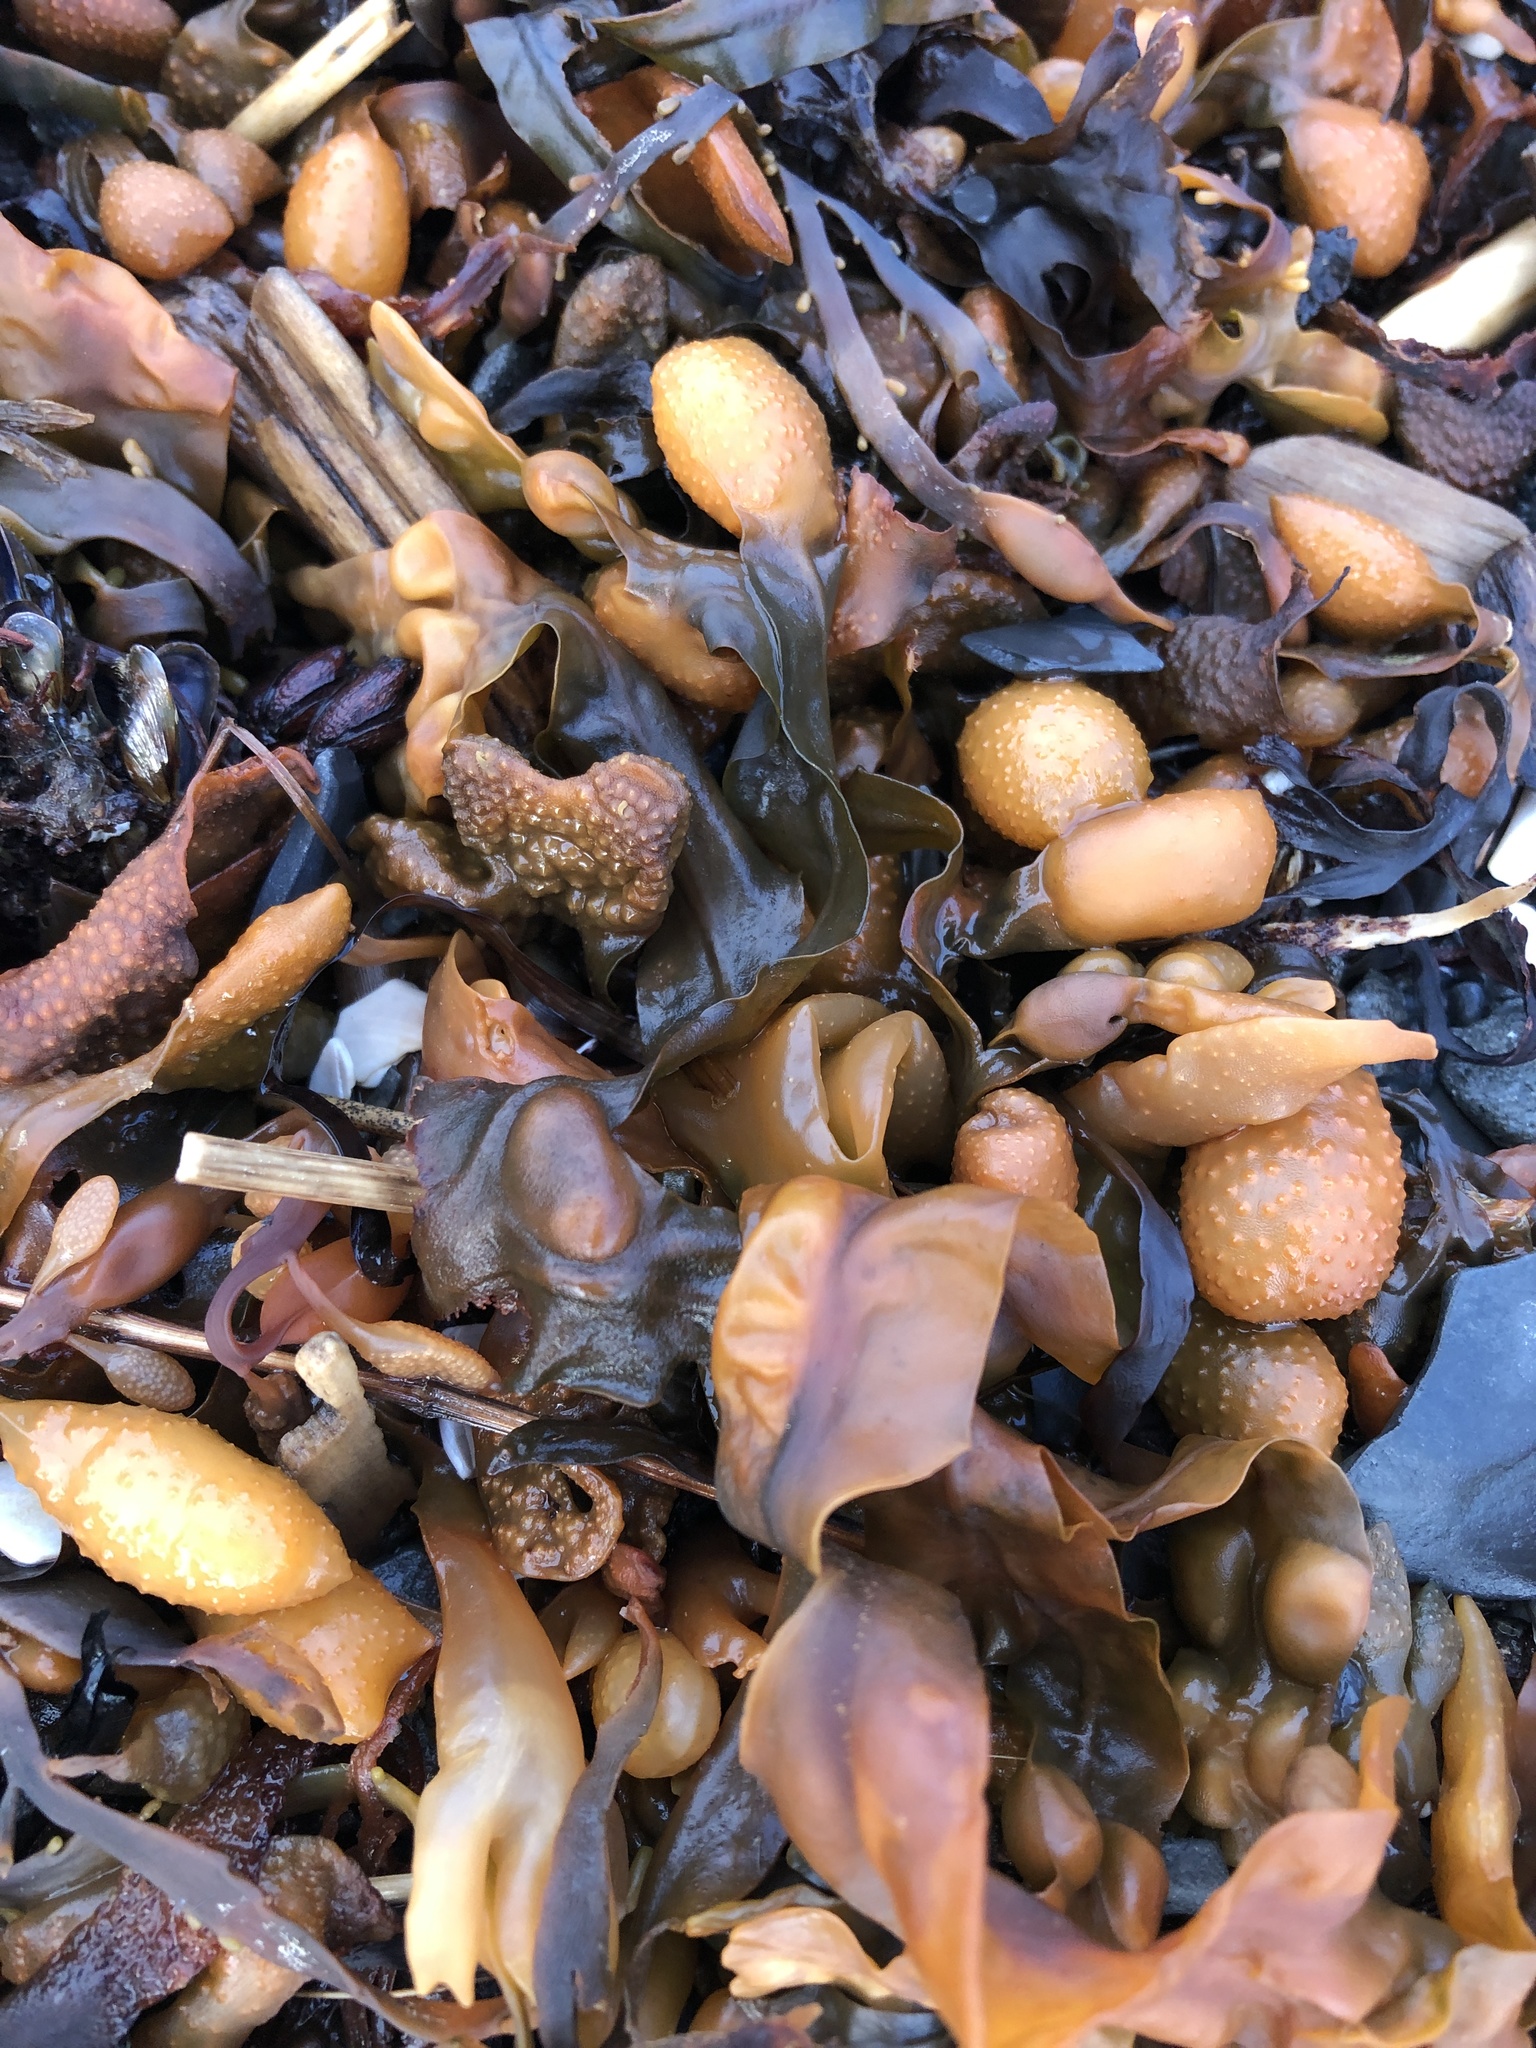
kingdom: Chromista
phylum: Ochrophyta
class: Phaeophyceae
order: Fucales
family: Fucaceae
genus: Fucus
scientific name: Fucus vesiculosus
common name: Bladder wrack
